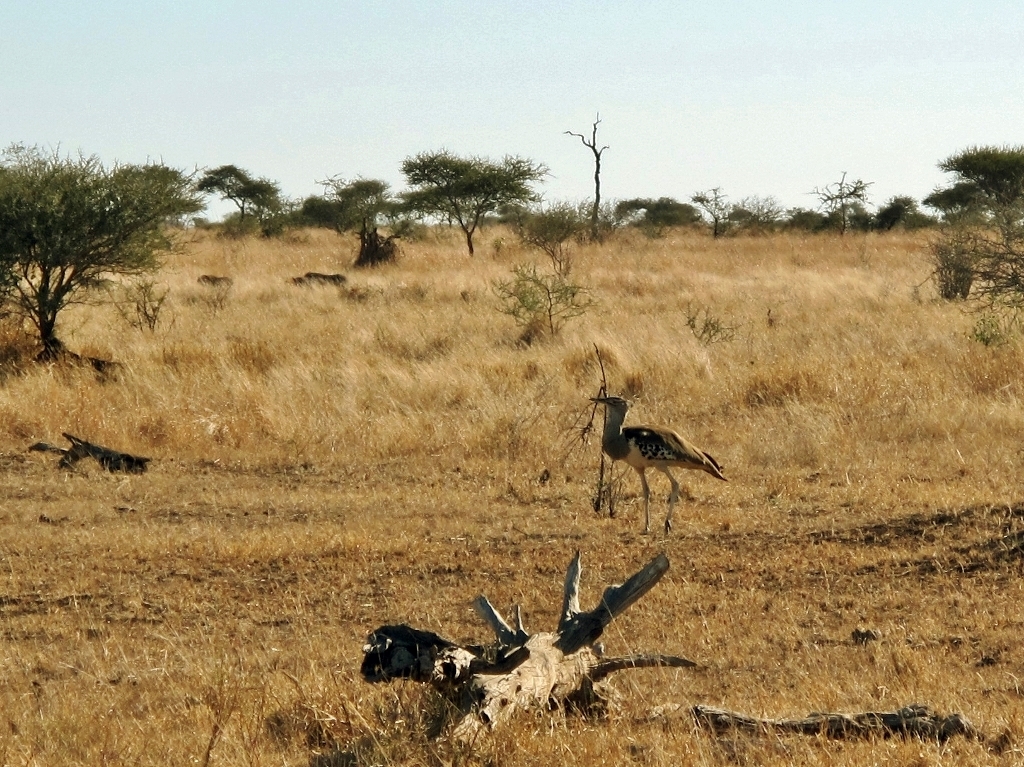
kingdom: Animalia
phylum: Chordata
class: Aves
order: Otidiformes
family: Otididae
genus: Ardeotis
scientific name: Ardeotis kori
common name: Kori bustard
